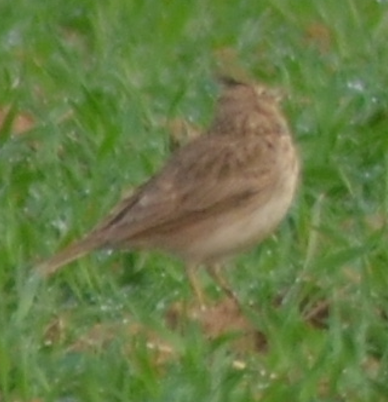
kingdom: Animalia
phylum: Chordata
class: Aves
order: Passeriformes
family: Alaudidae
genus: Galerida
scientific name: Galerida cristata
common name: Crested lark
